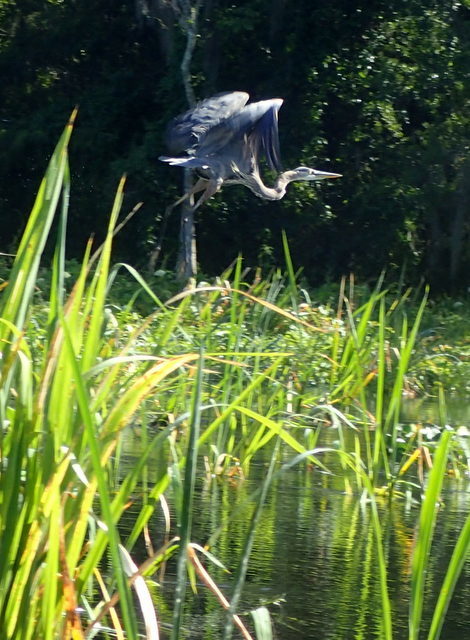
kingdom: Animalia
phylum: Chordata
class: Aves
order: Pelecaniformes
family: Ardeidae
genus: Ardea
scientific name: Ardea herodias
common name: Great blue heron
